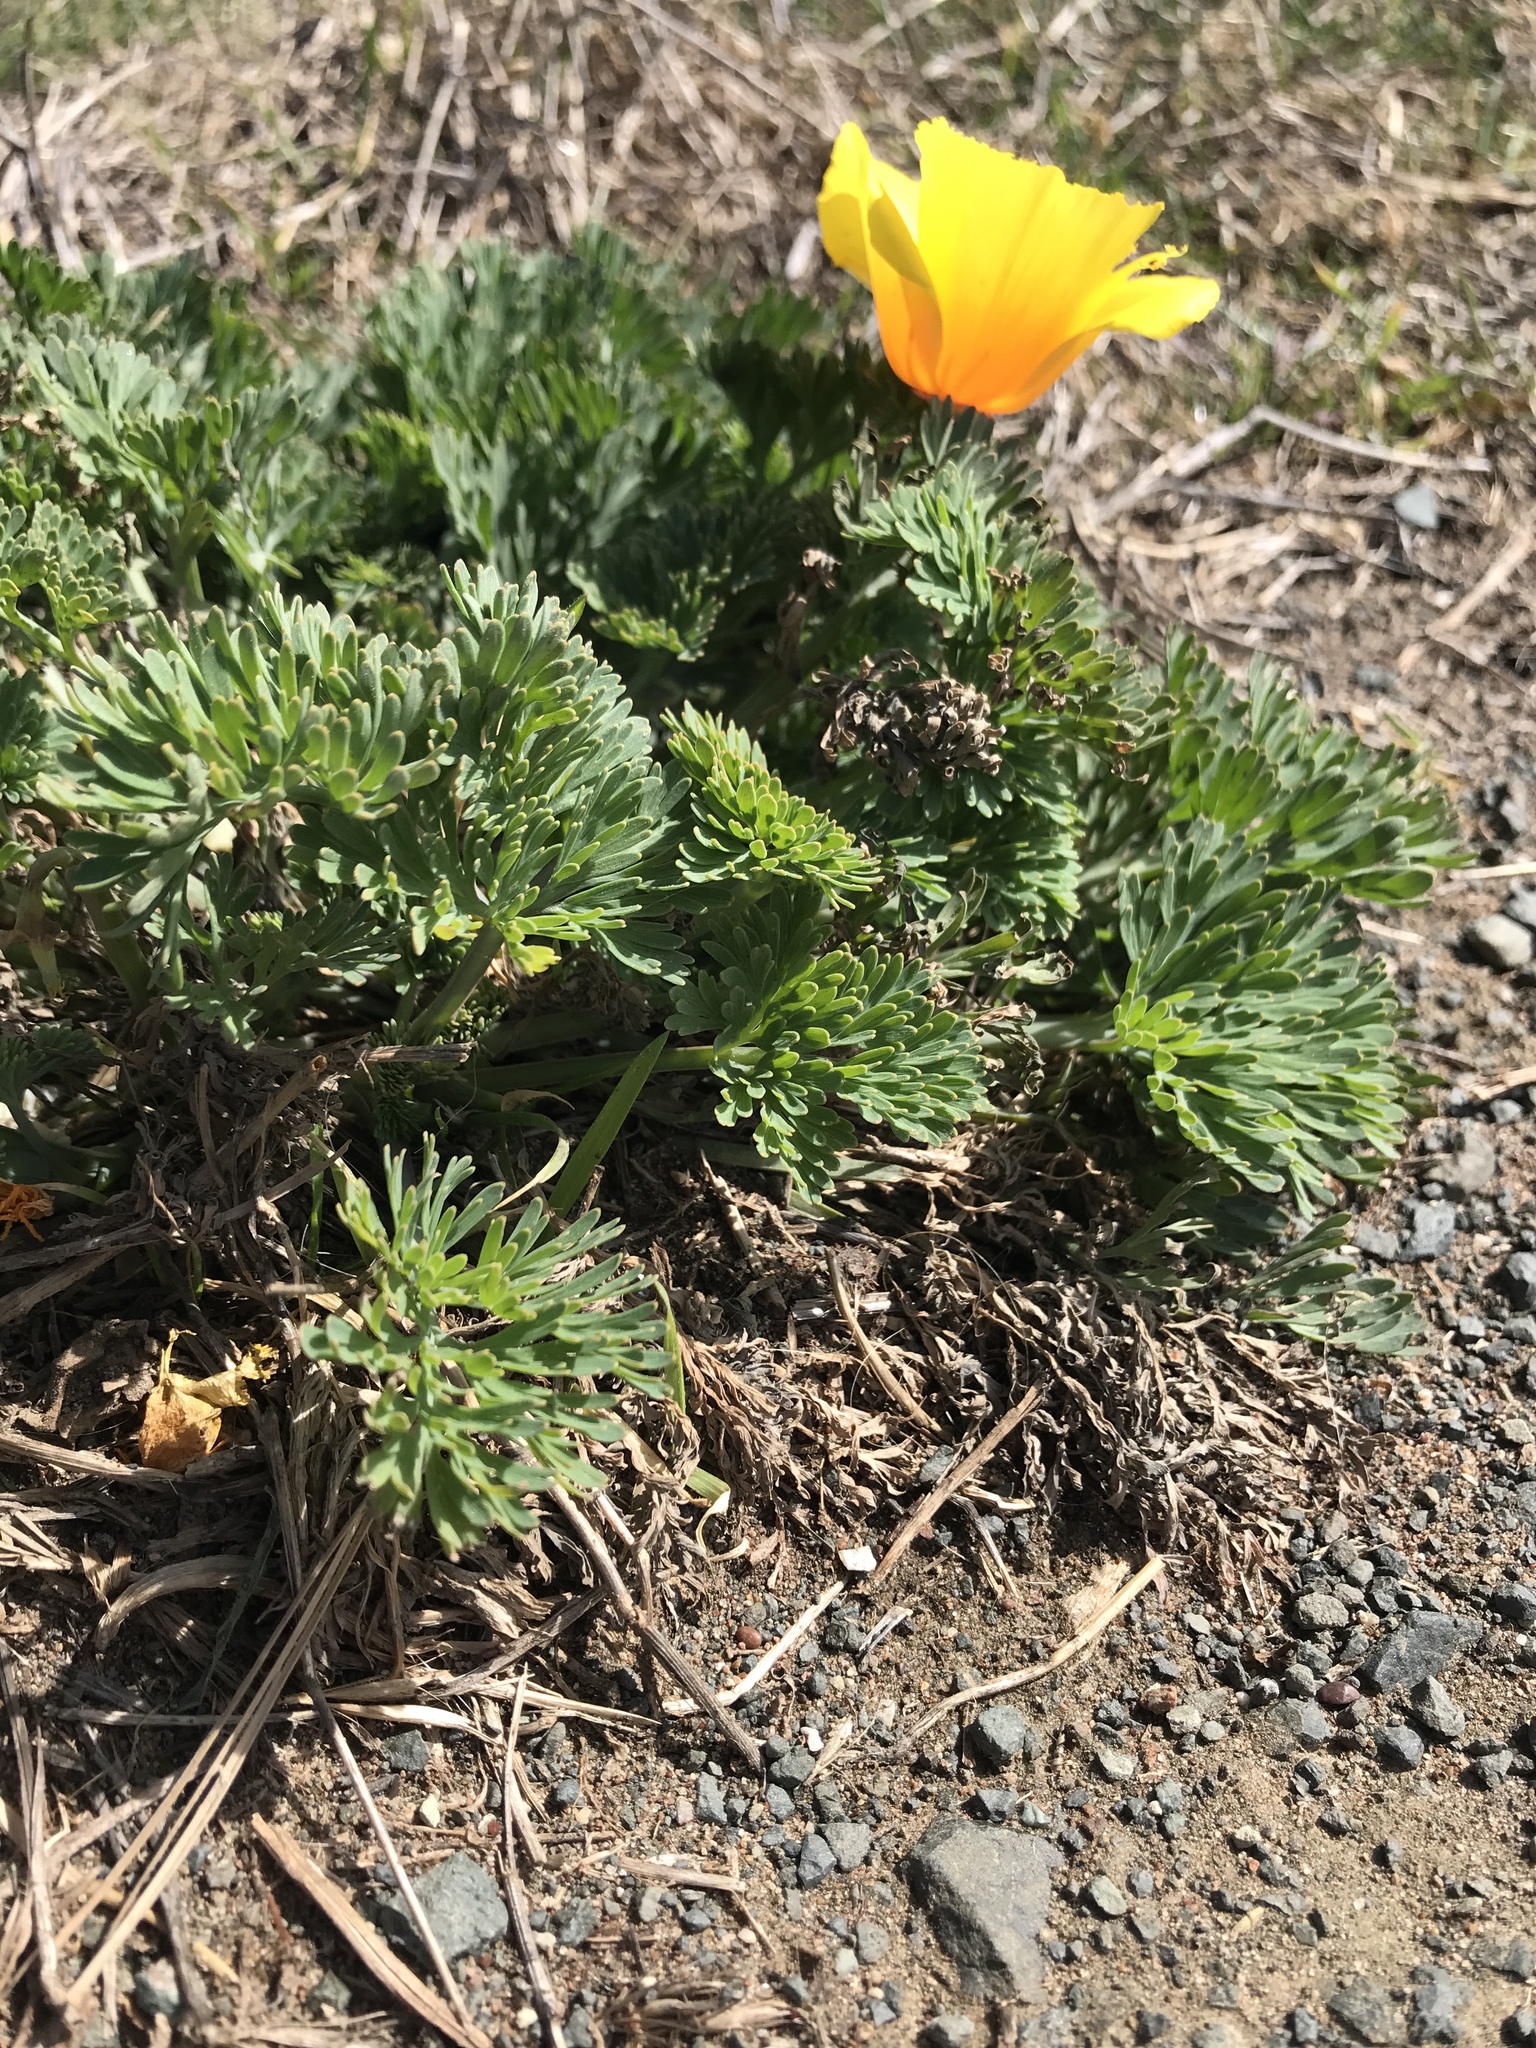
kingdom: Plantae
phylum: Tracheophyta
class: Magnoliopsida
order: Ranunculales
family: Papaveraceae
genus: Eschscholzia
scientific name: Eschscholzia californica
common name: California poppy
